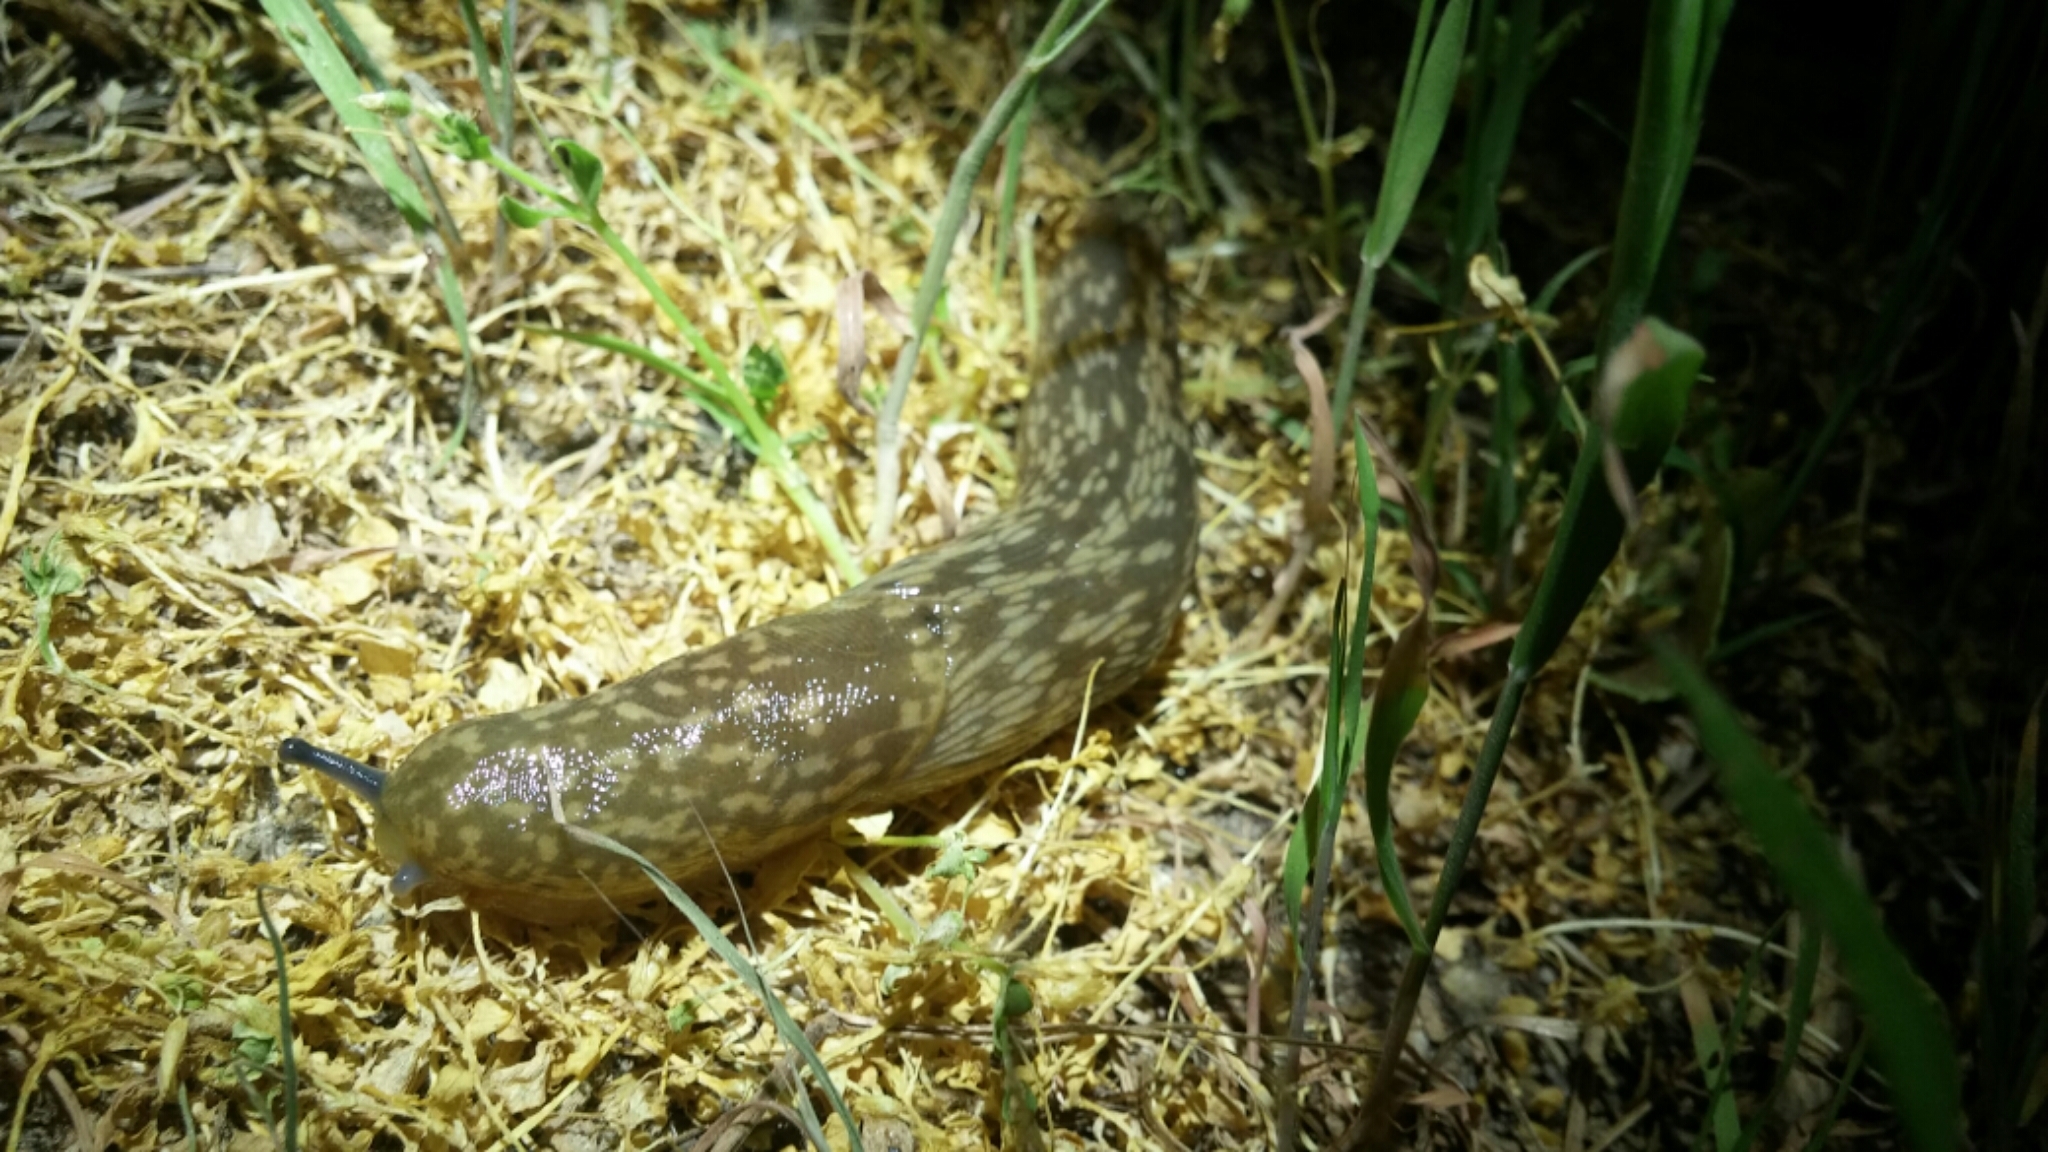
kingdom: Animalia
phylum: Mollusca
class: Gastropoda
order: Stylommatophora
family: Limacidae
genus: Limacus
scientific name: Limacus flavus
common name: Yellow gardenslug
